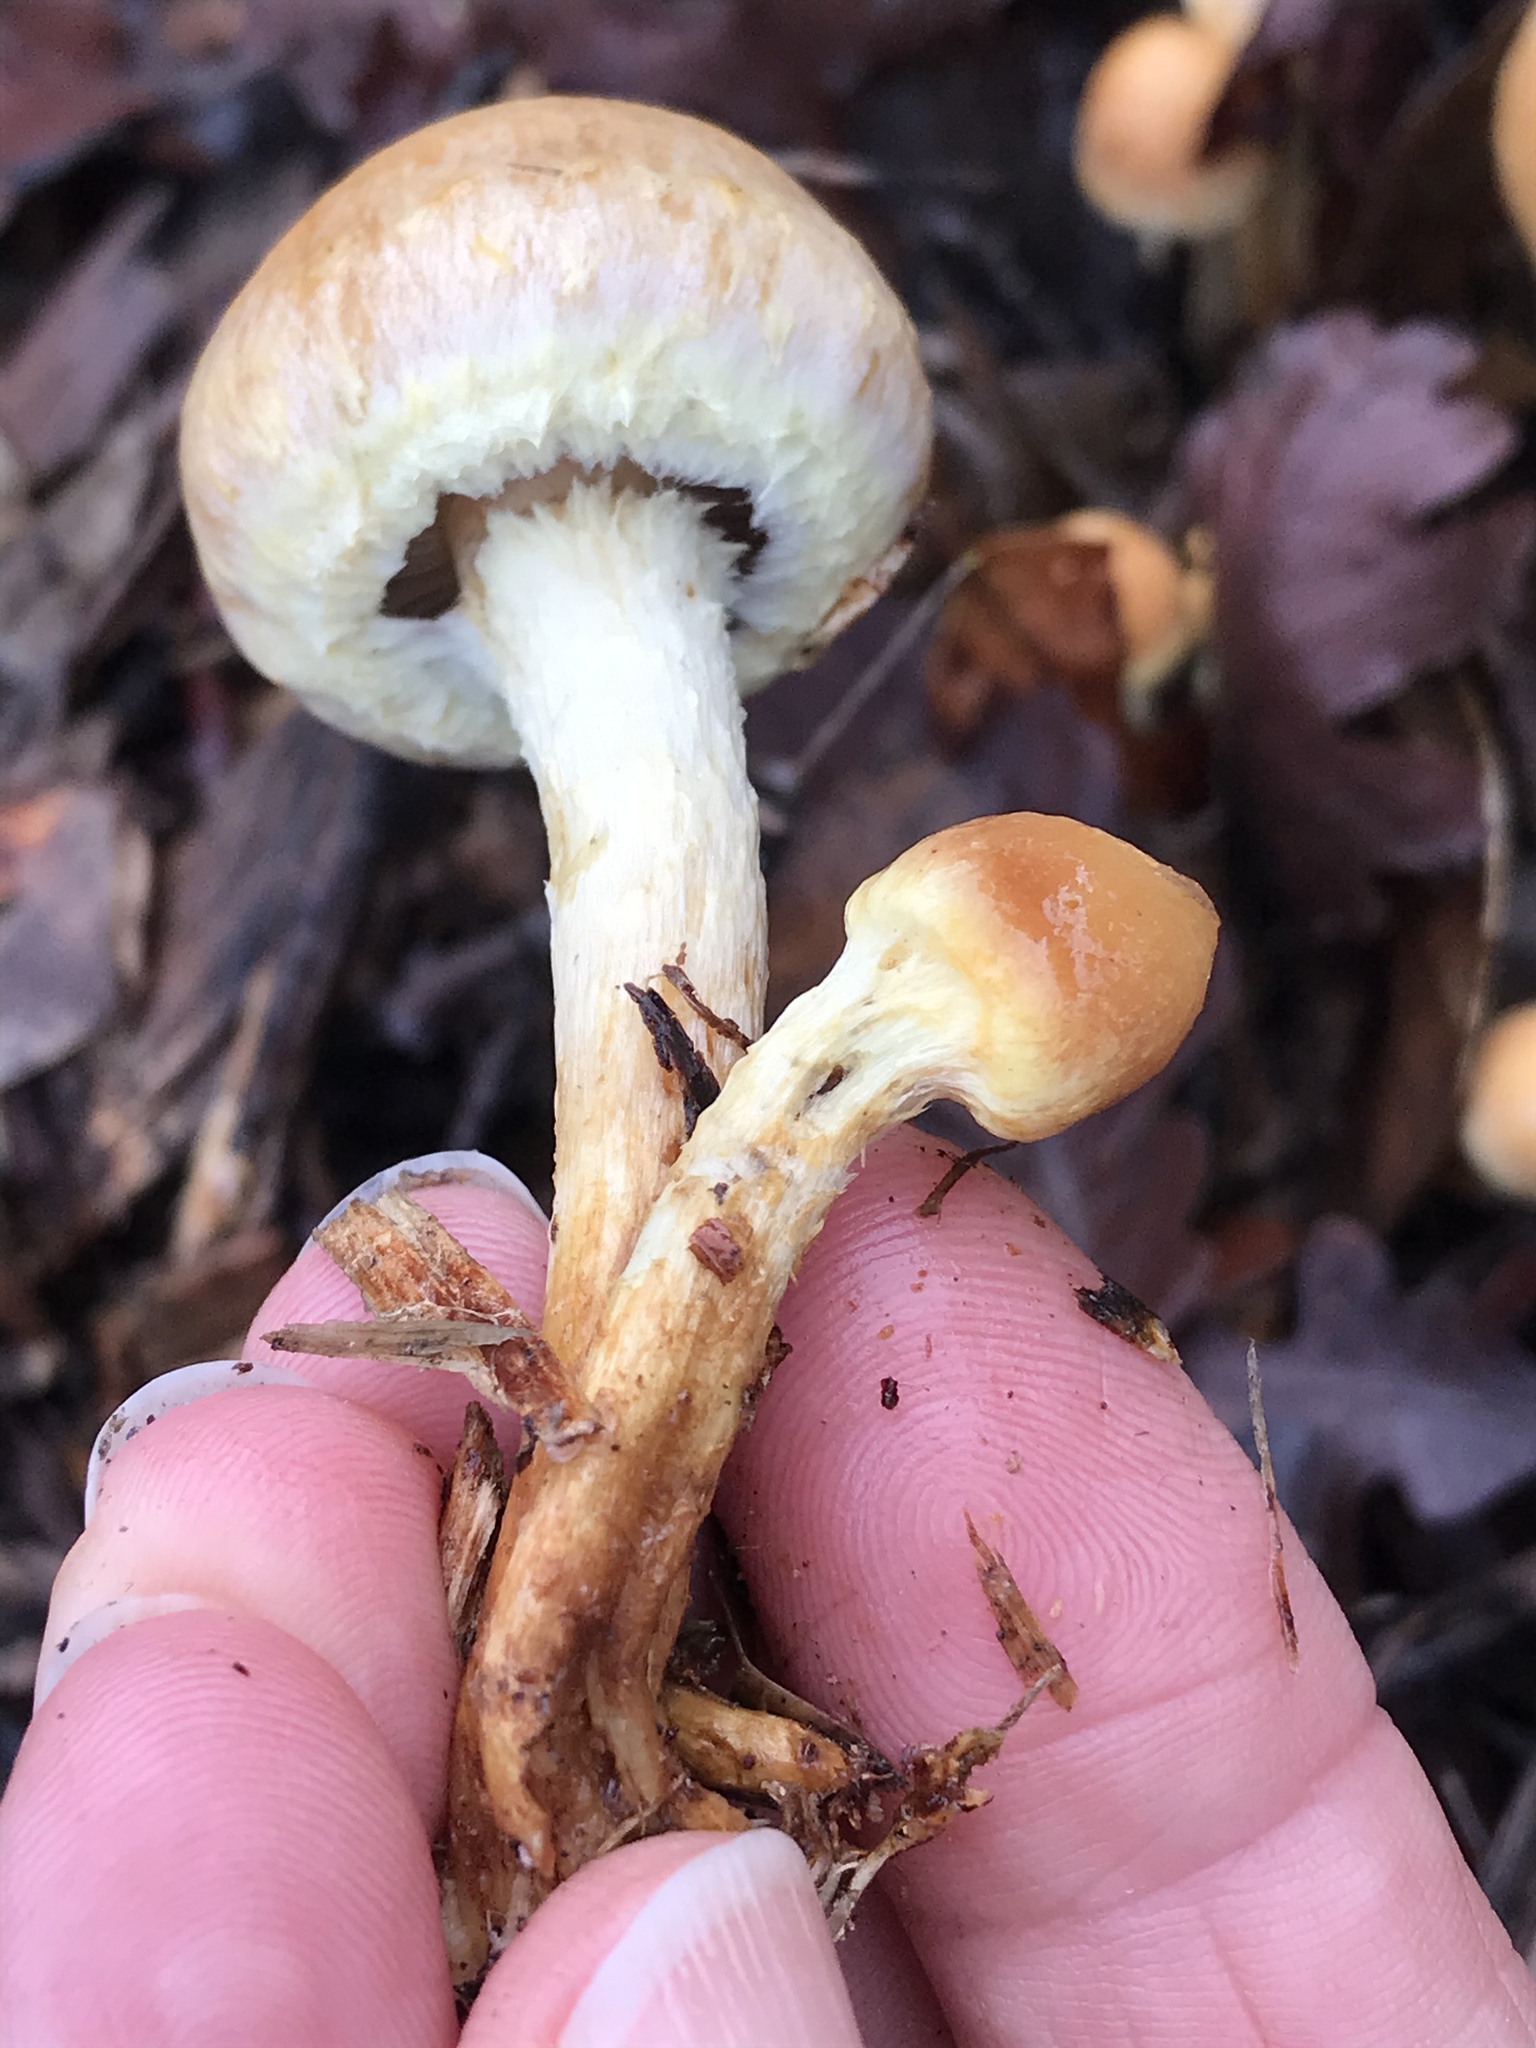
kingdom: Fungi
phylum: Basidiomycota
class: Agaricomycetes
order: Agaricales
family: Strophariaceae
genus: Leratiomyces
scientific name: Leratiomyces percevalii
